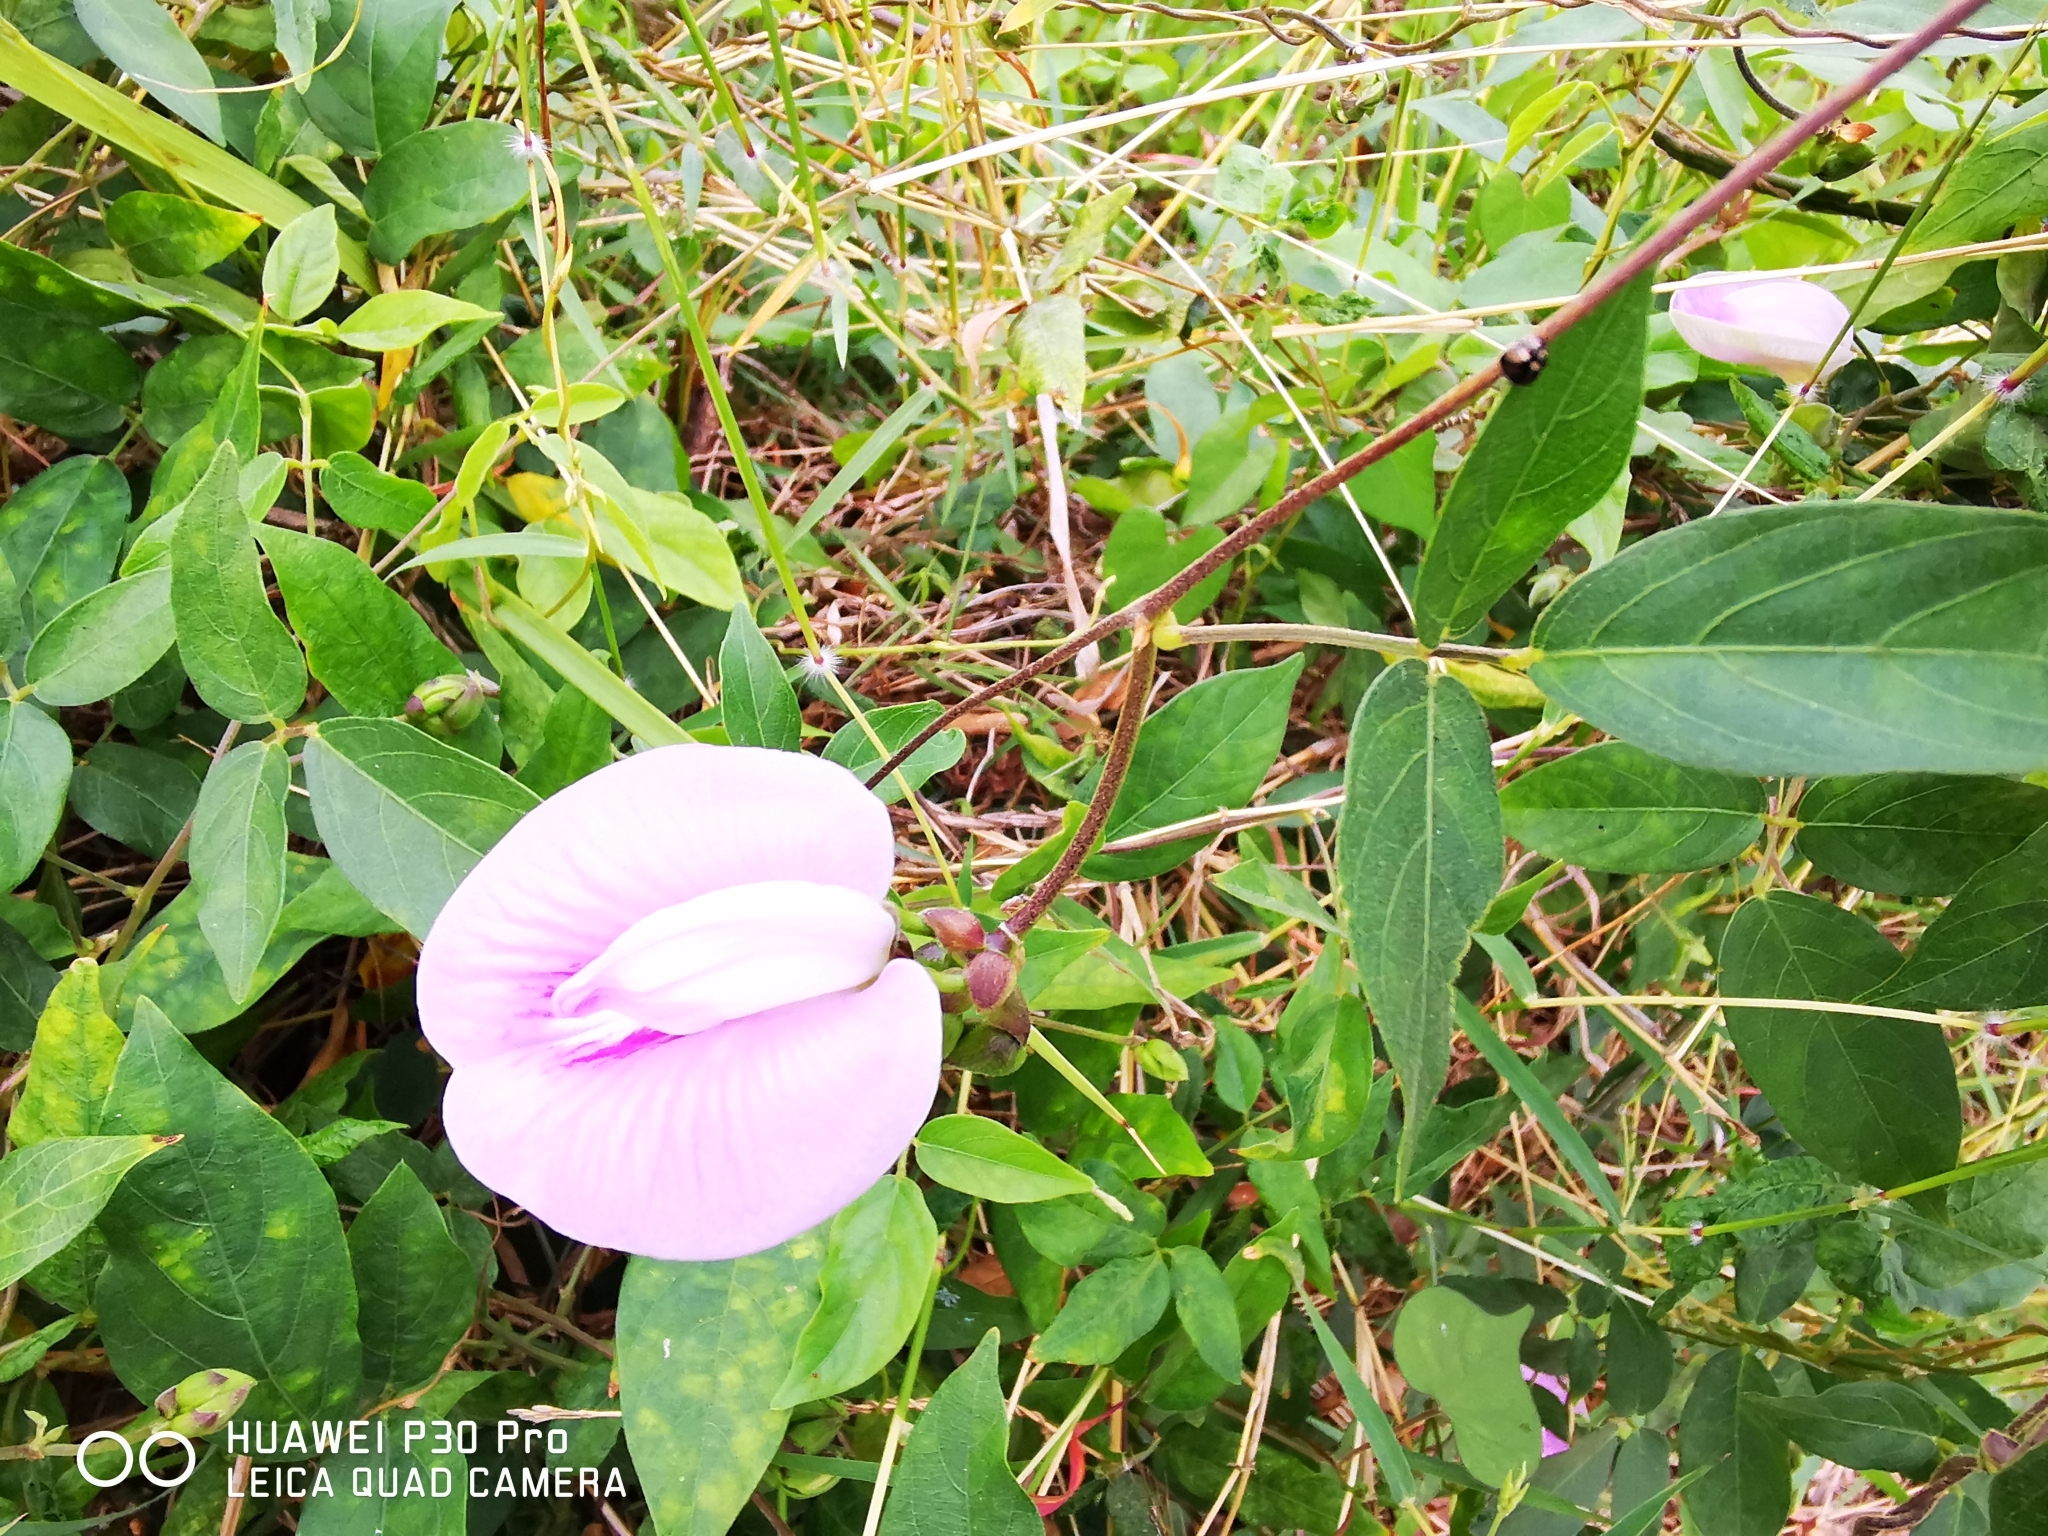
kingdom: Plantae
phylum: Tracheophyta
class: Magnoliopsida
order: Fabales
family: Fabaceae
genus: Centrosema
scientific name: Centrosema pubescens
